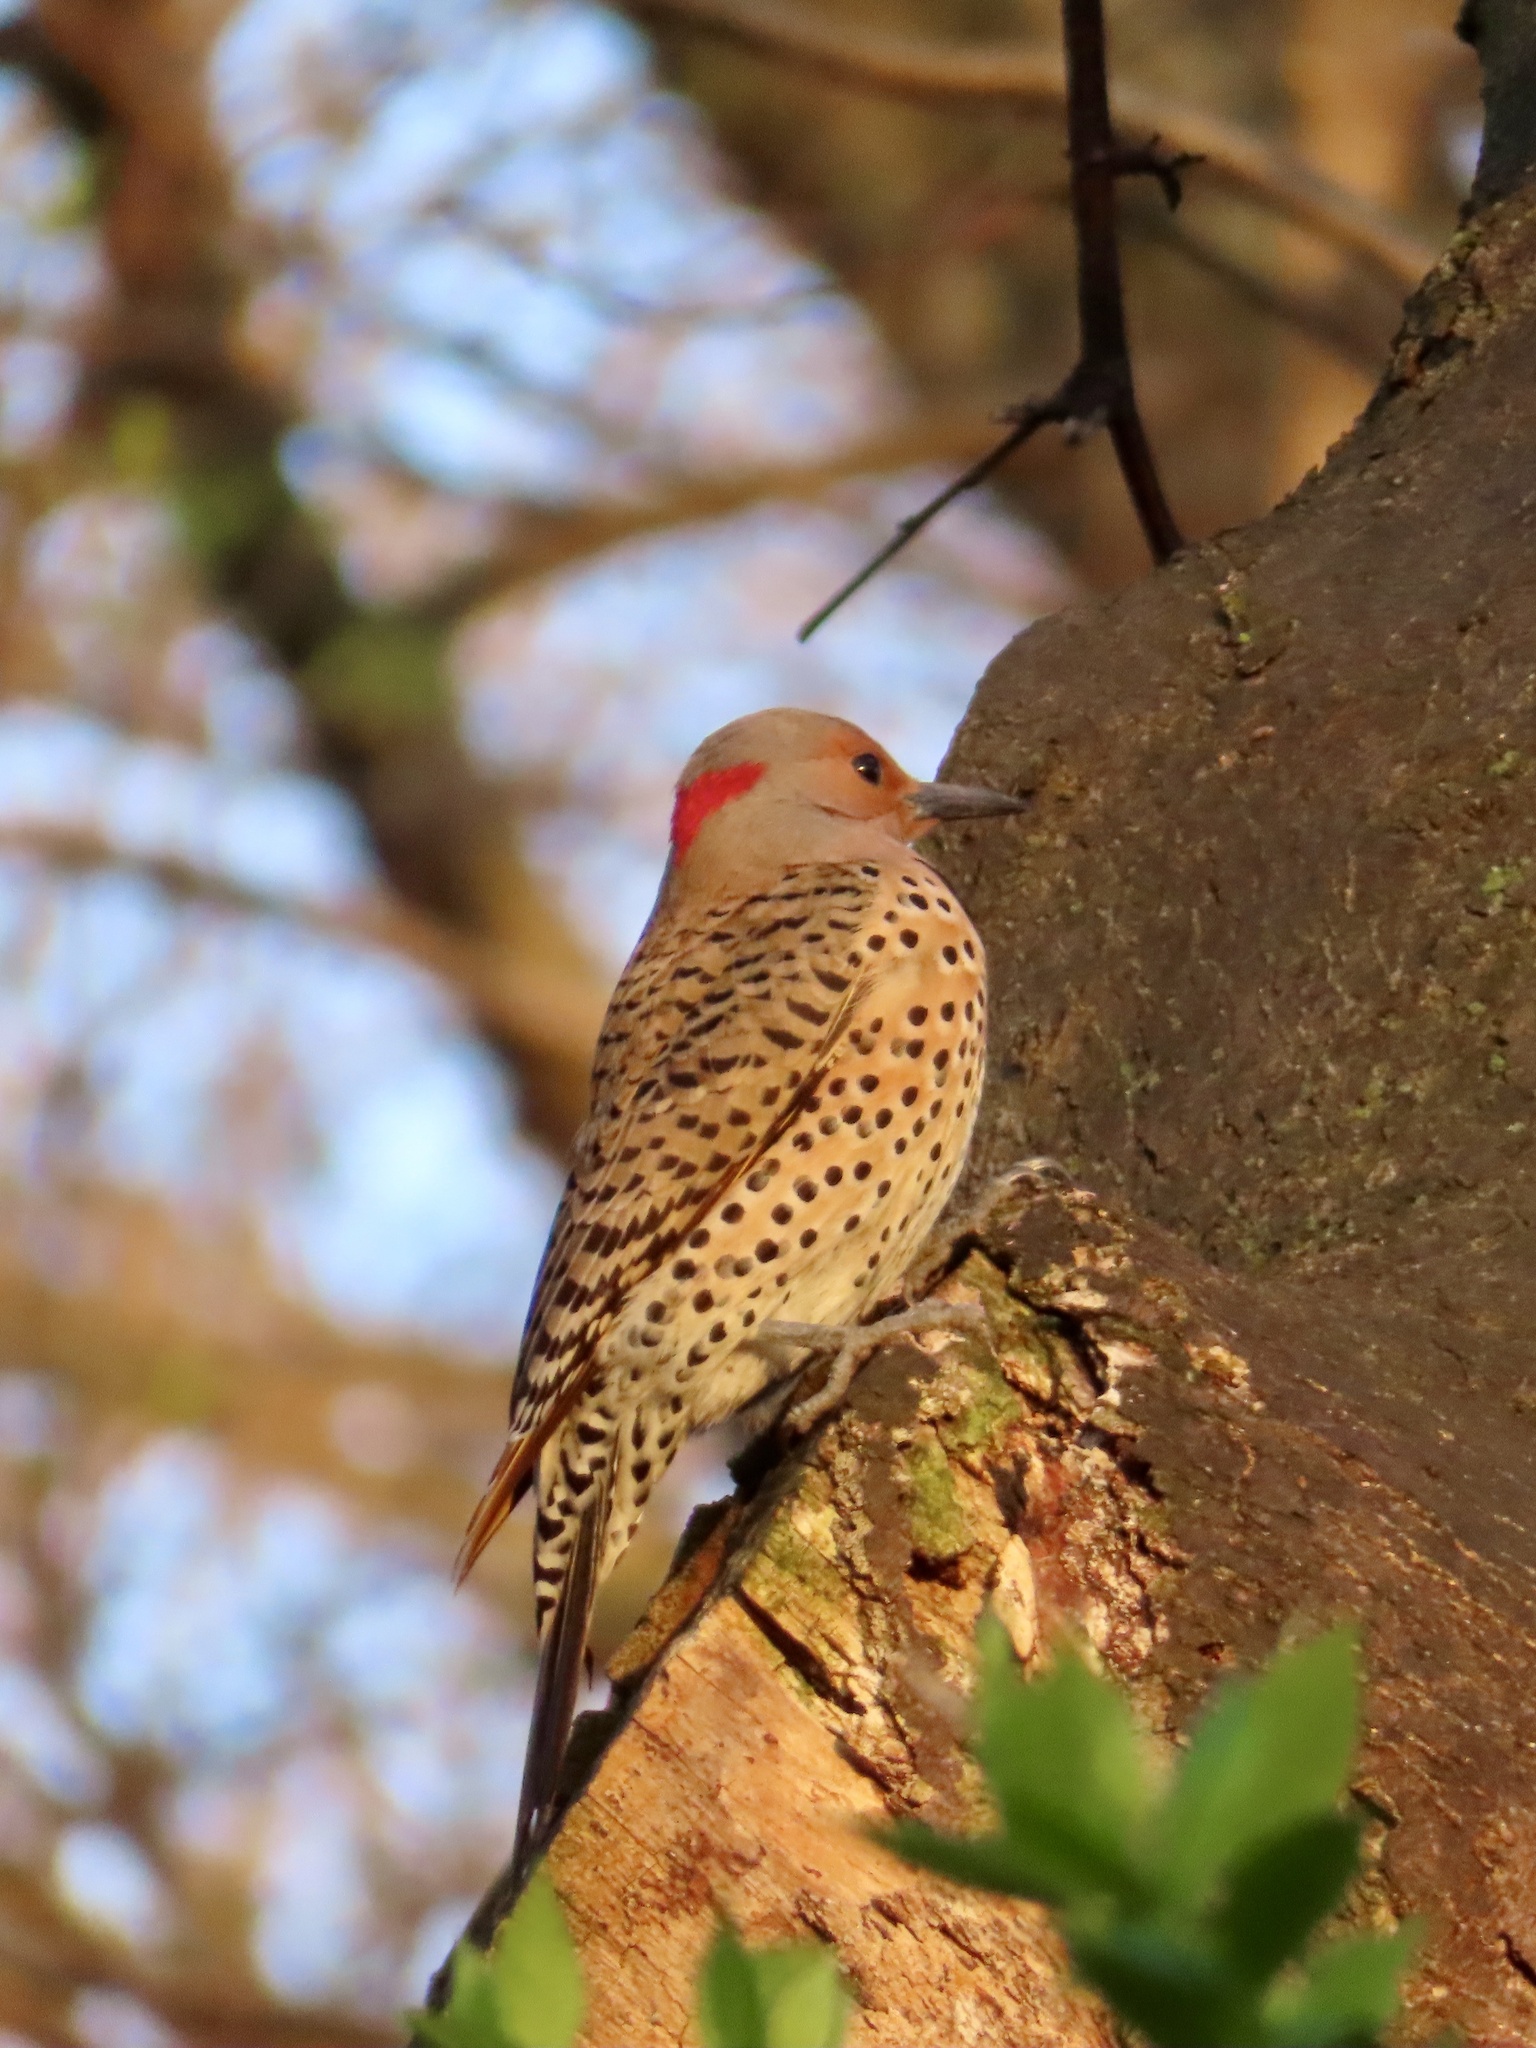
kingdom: Animalia
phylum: Chordata
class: Aves
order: Piciformes
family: Picidae
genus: Colaptes
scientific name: Colaptes auratus
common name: Northern flicker
